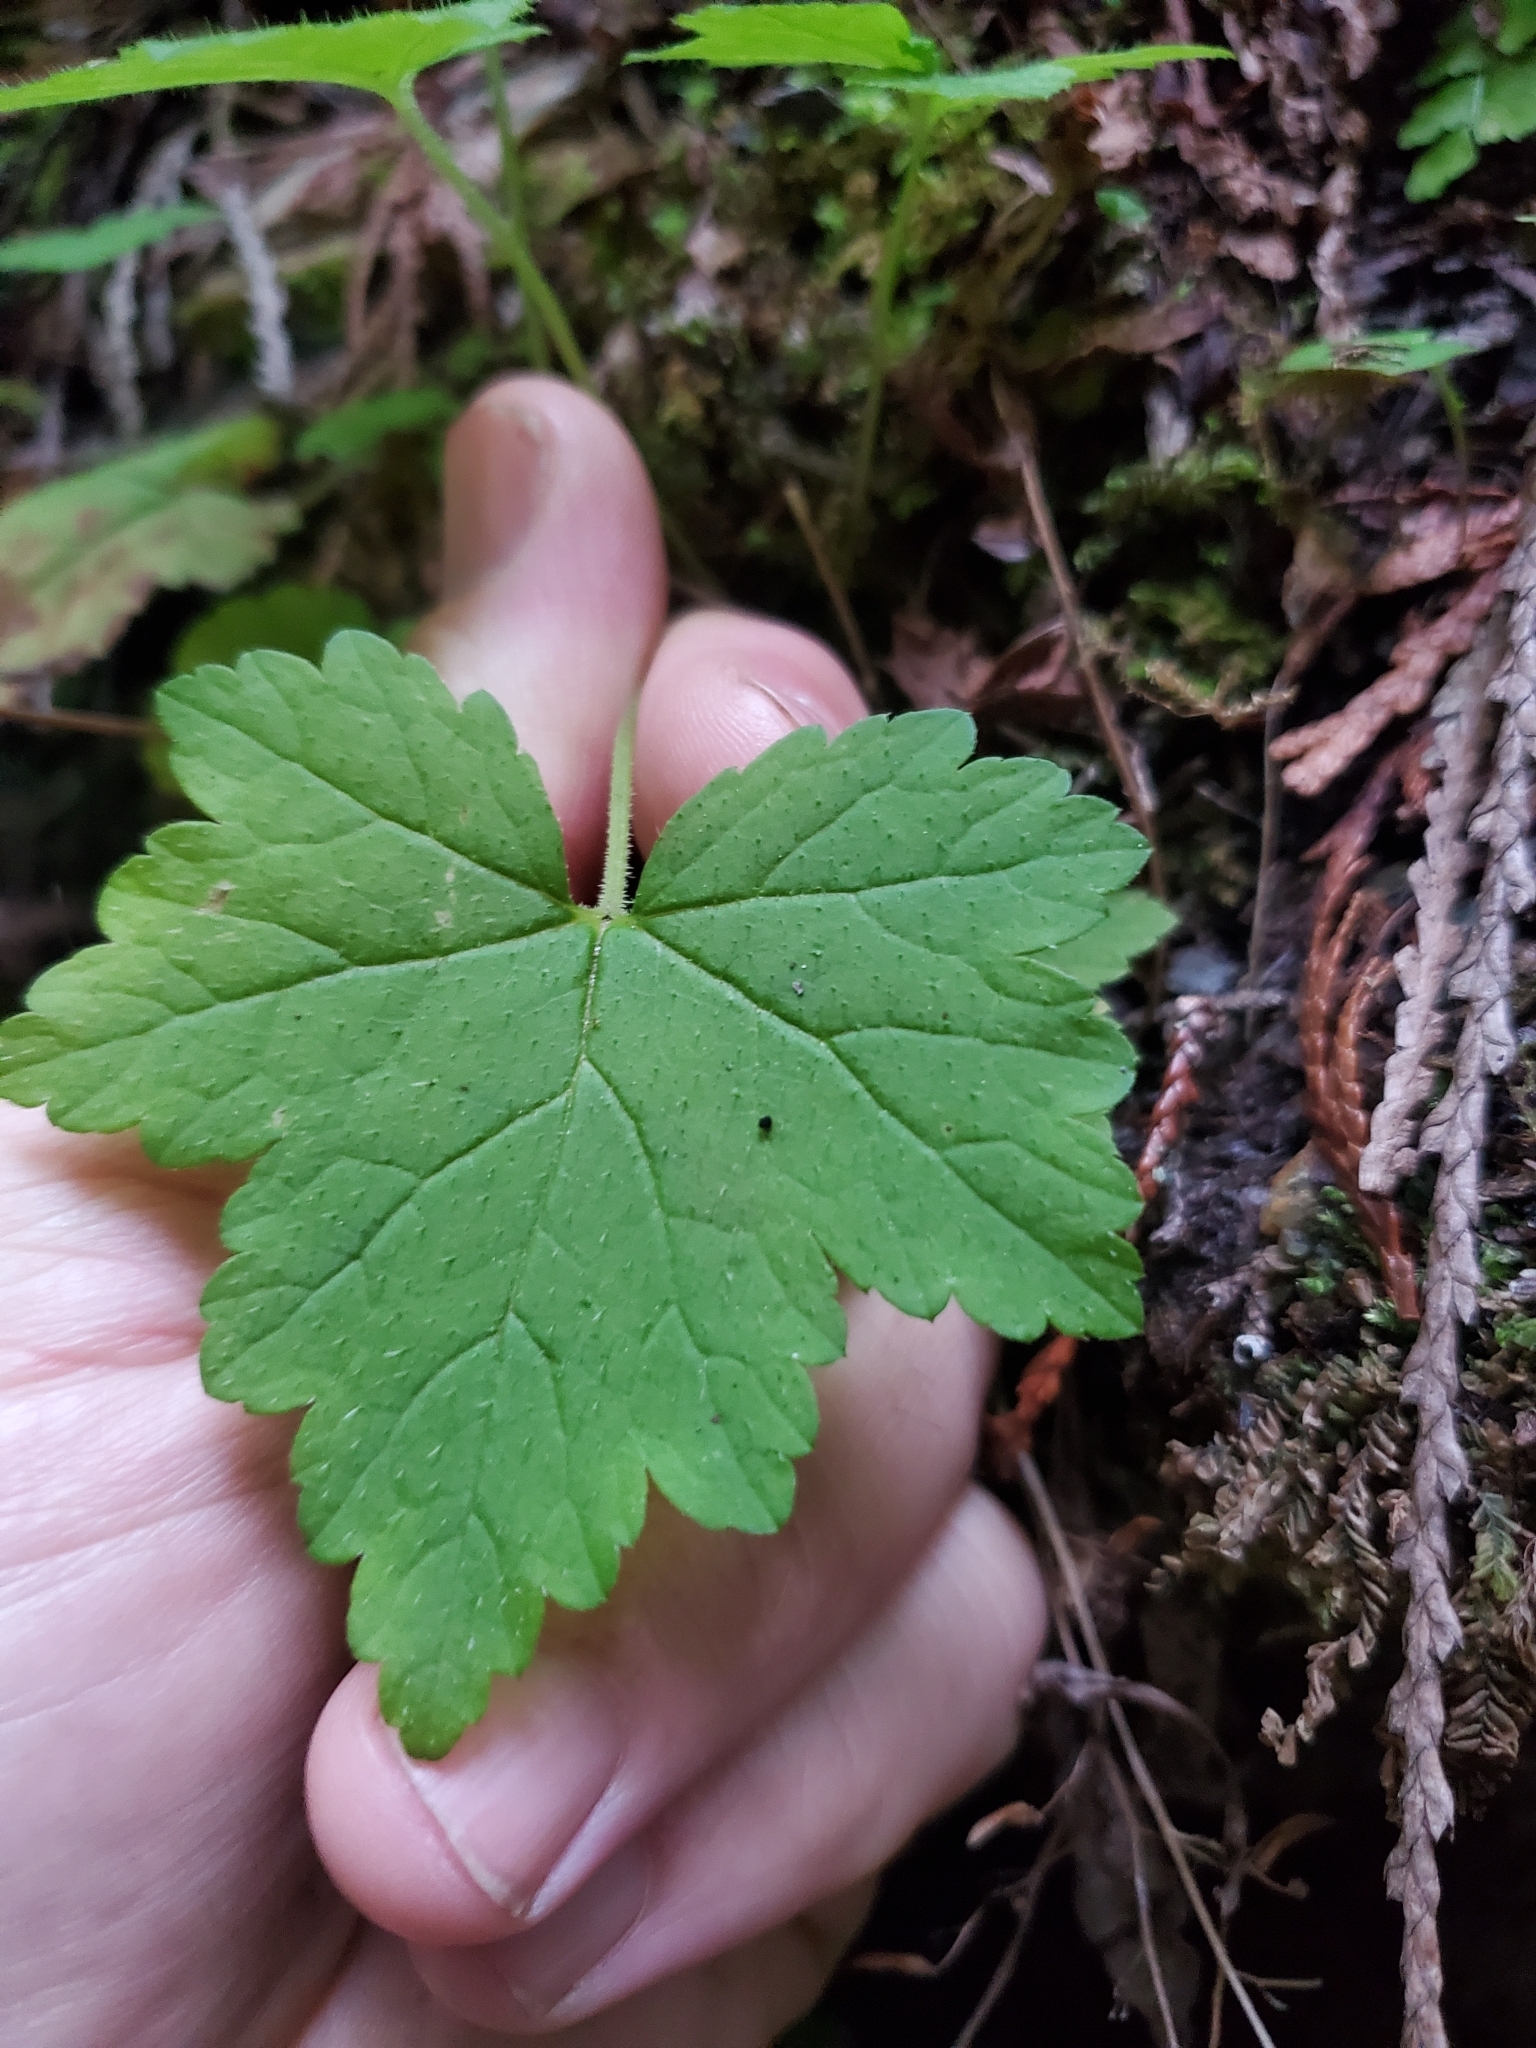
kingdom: Plantae
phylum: Tracheophyta
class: Magnoliopsida
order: Saxifragales
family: Saxifragaceae
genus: Tiarella
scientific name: Tiarella trifoliata
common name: Sugar-scoop
